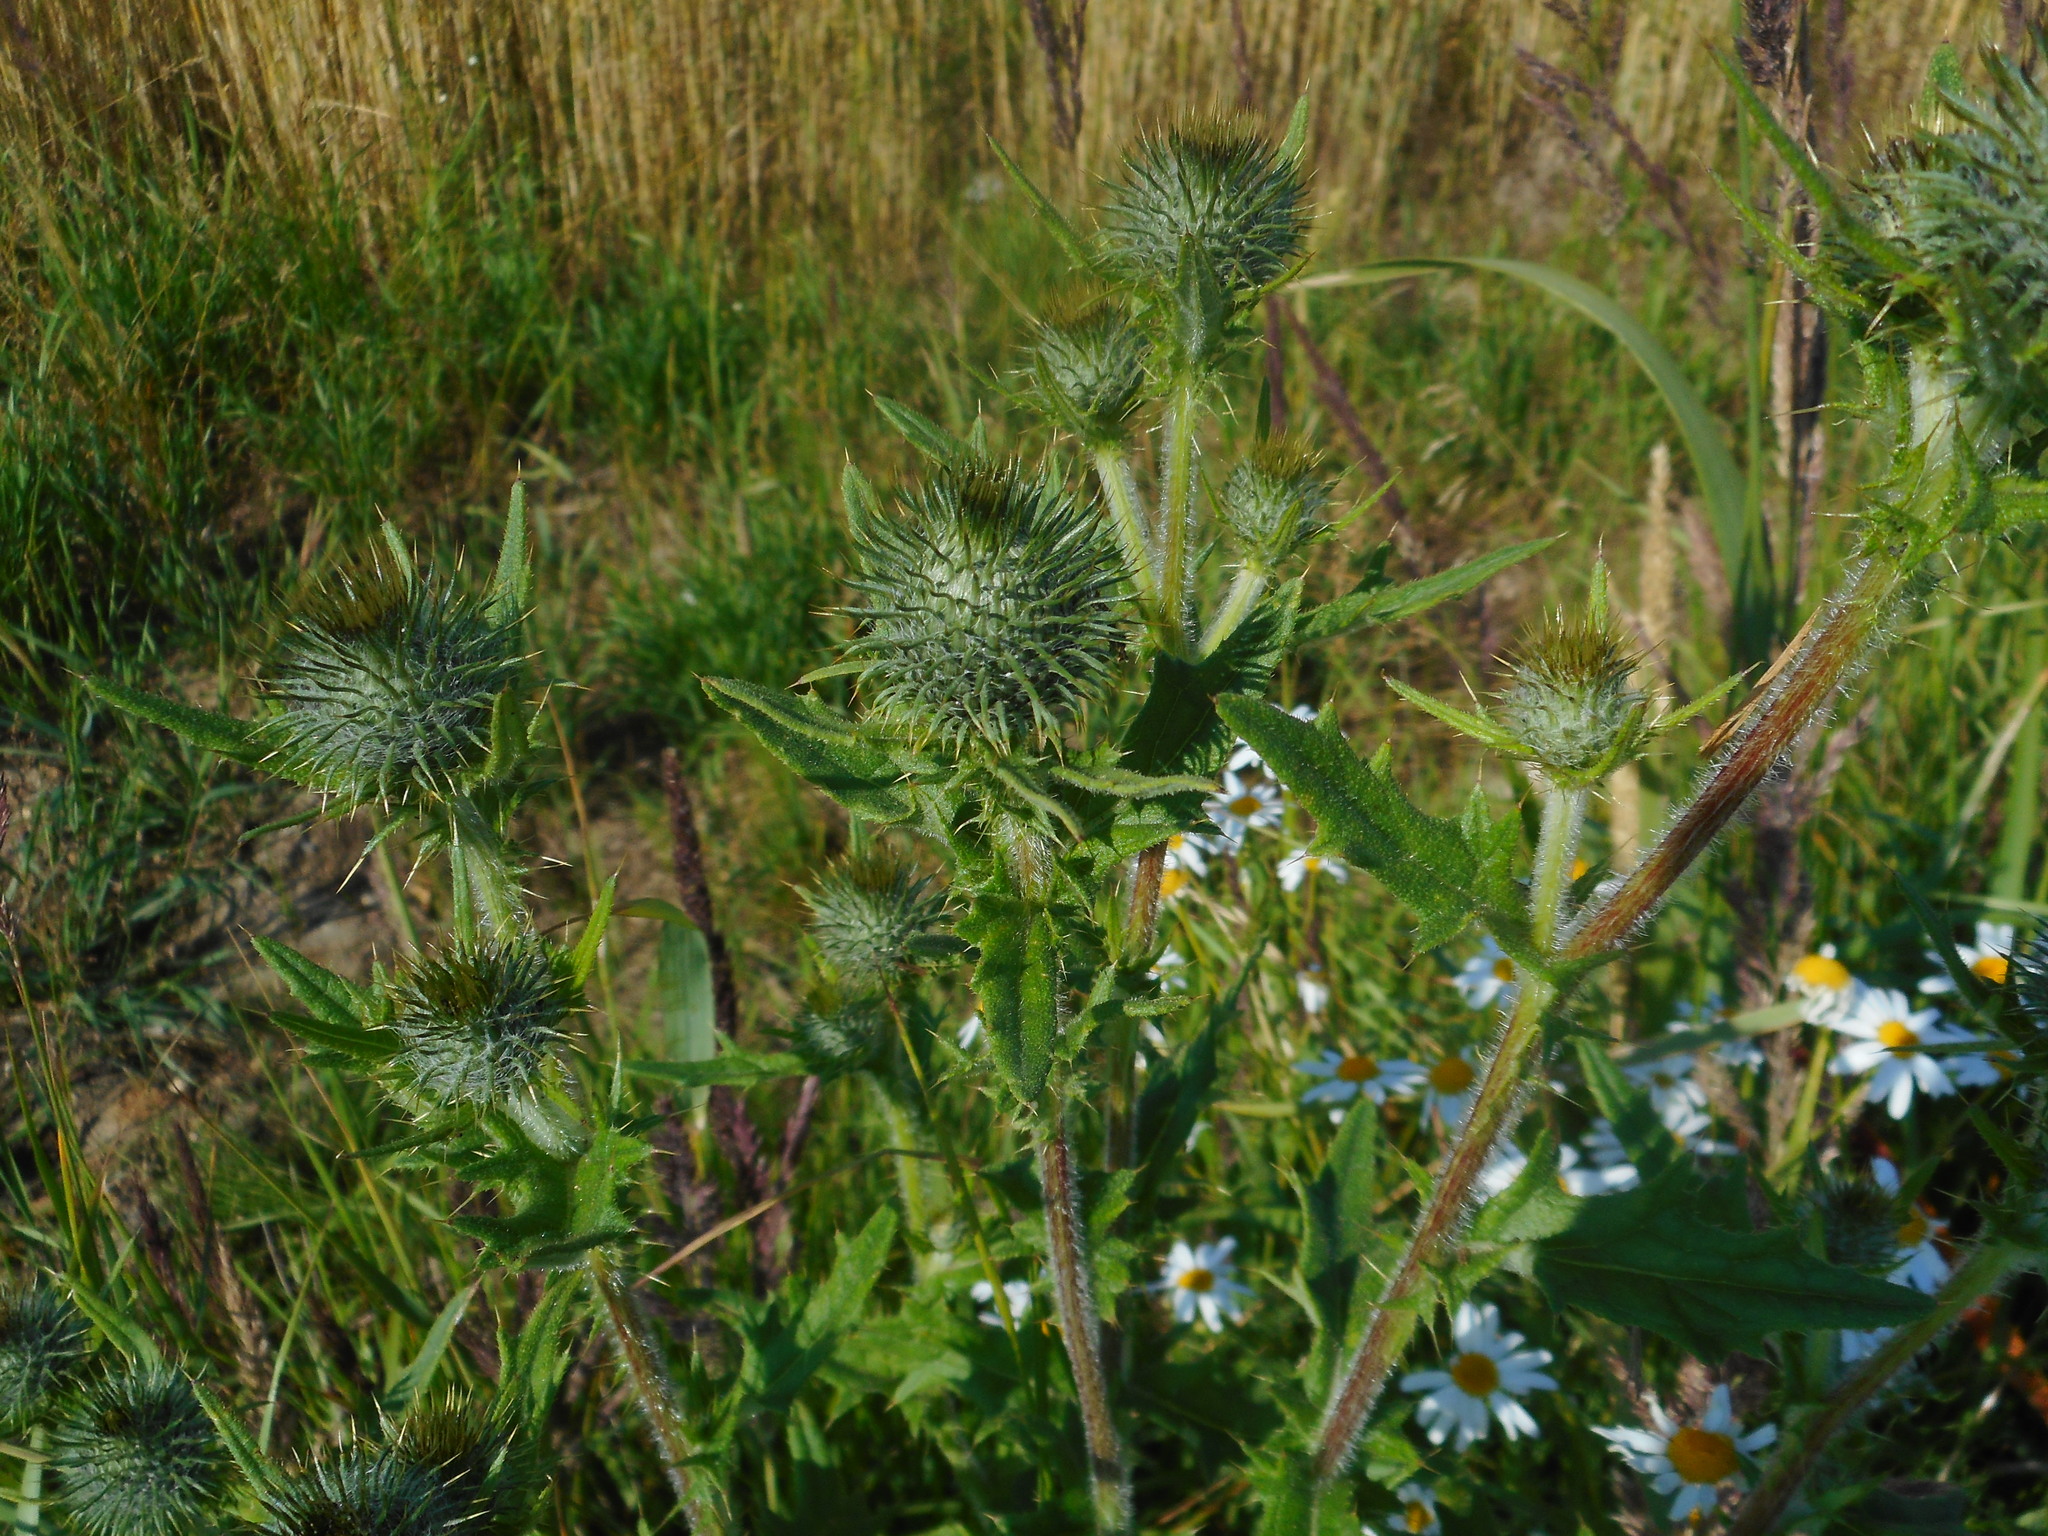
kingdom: Plantae
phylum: Tracheophyta
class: Magnoliopsida
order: Asterales
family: Asteraceae
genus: Cirsium
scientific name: Cirsium vulgare
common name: Bull thistle
